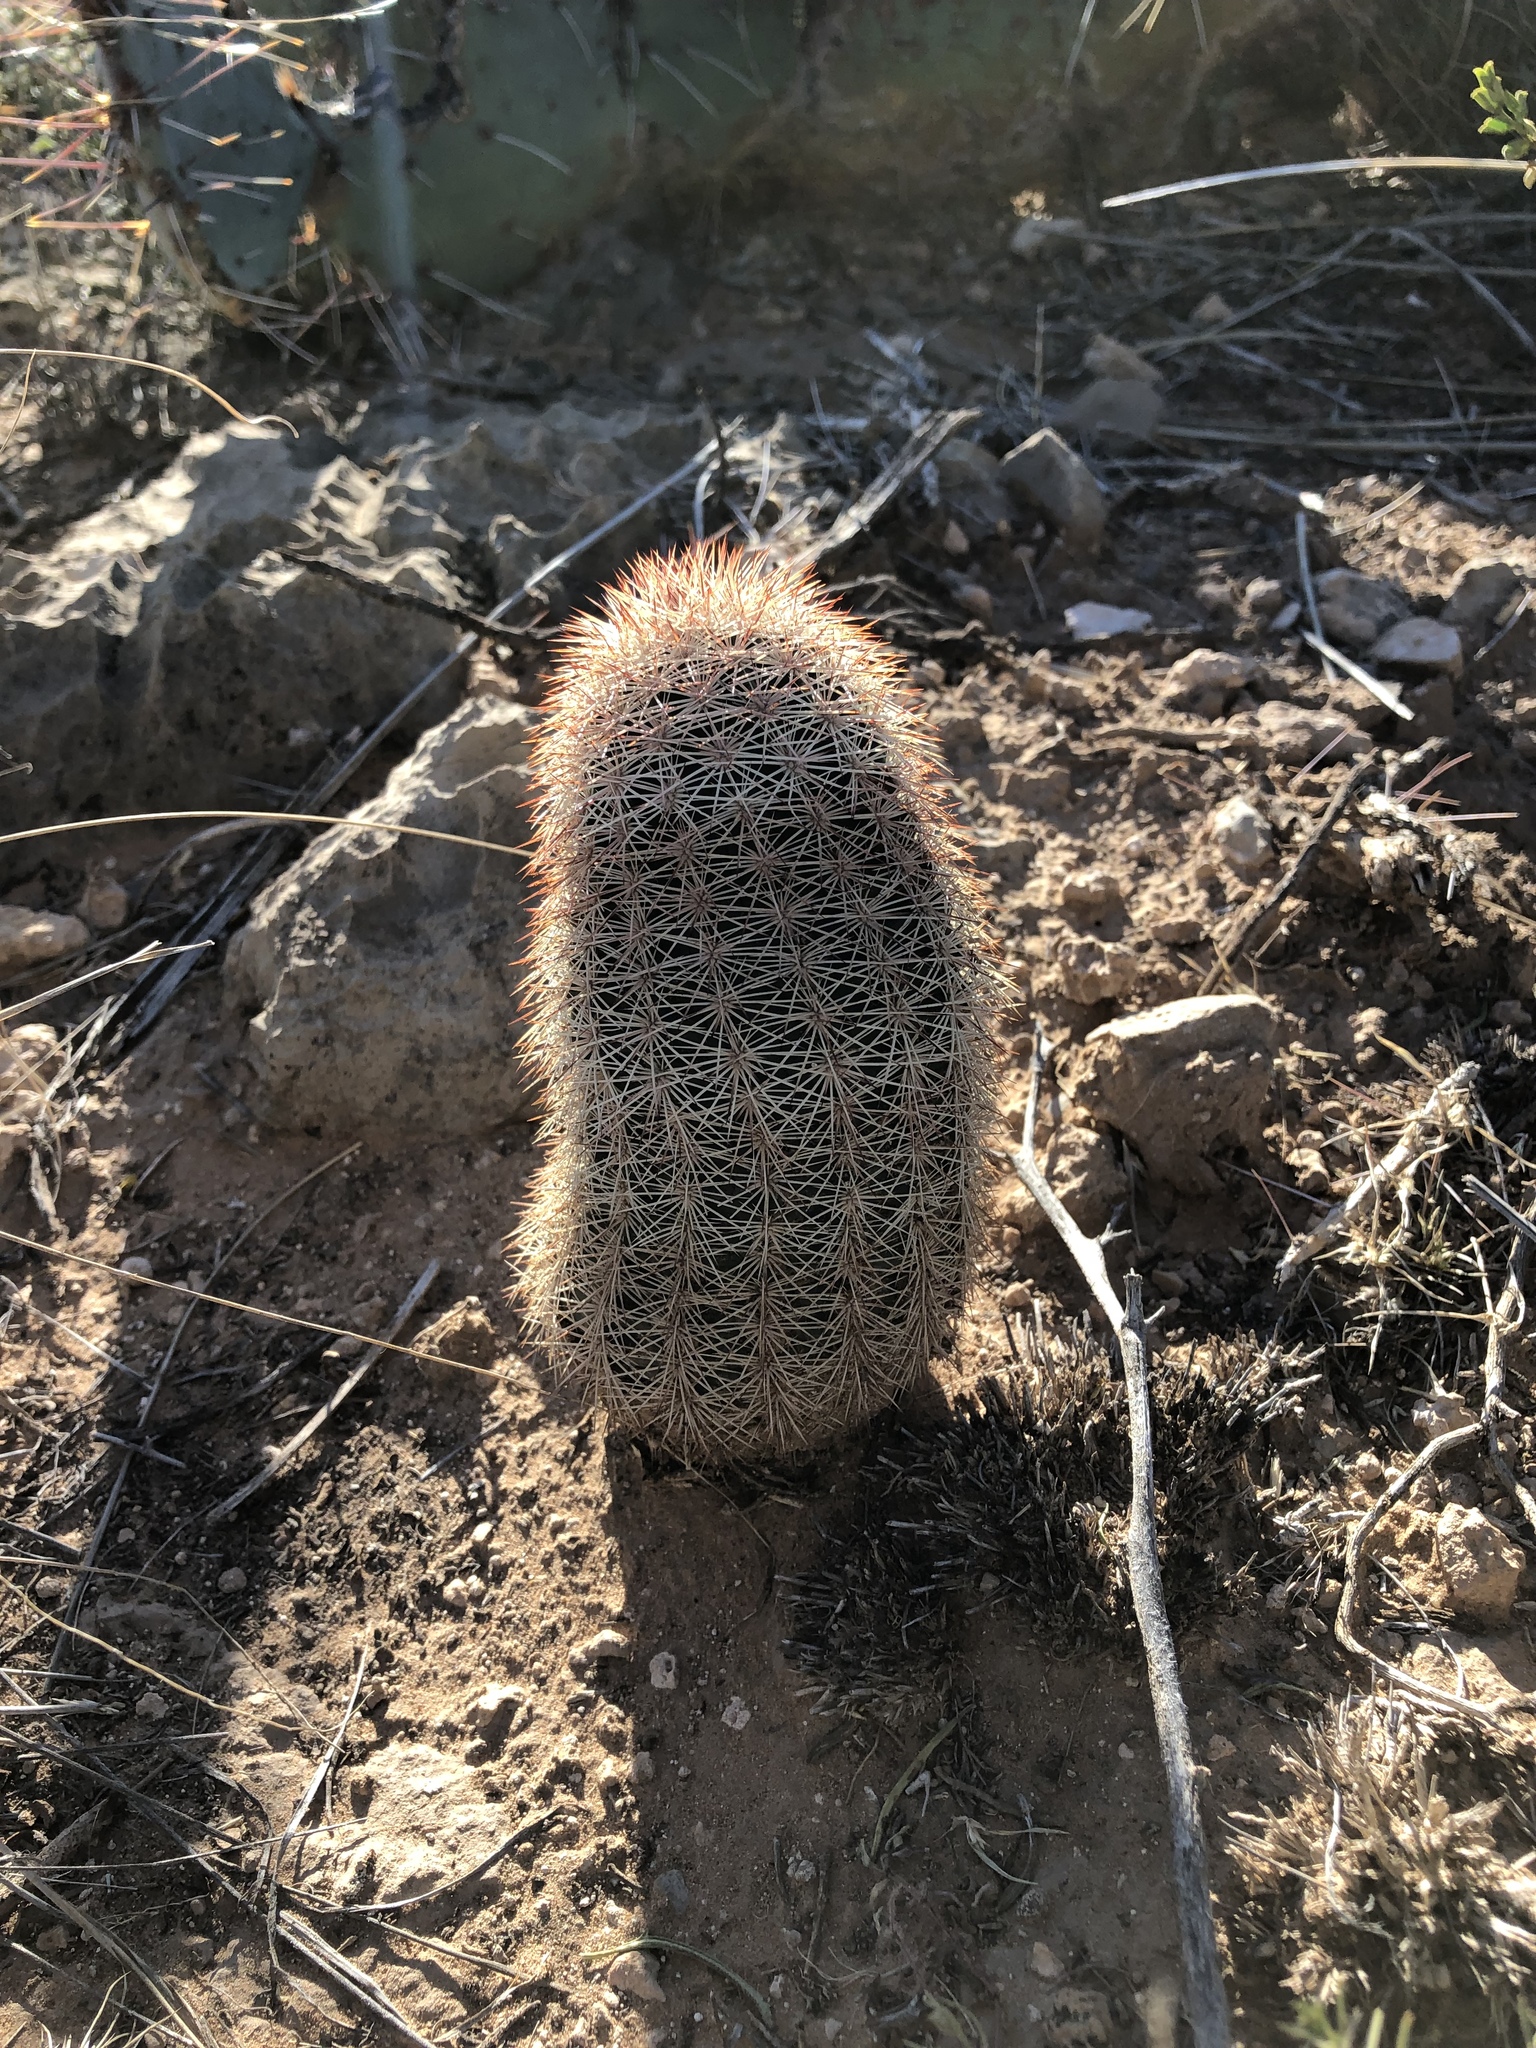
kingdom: Plantae
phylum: Tracheophyta
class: Magnoliopsida
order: Caryophyllales
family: Cactaceae
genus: Echinocereus
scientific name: Echinocereus dasyacanthus
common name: Spiny hedgehog cactus
